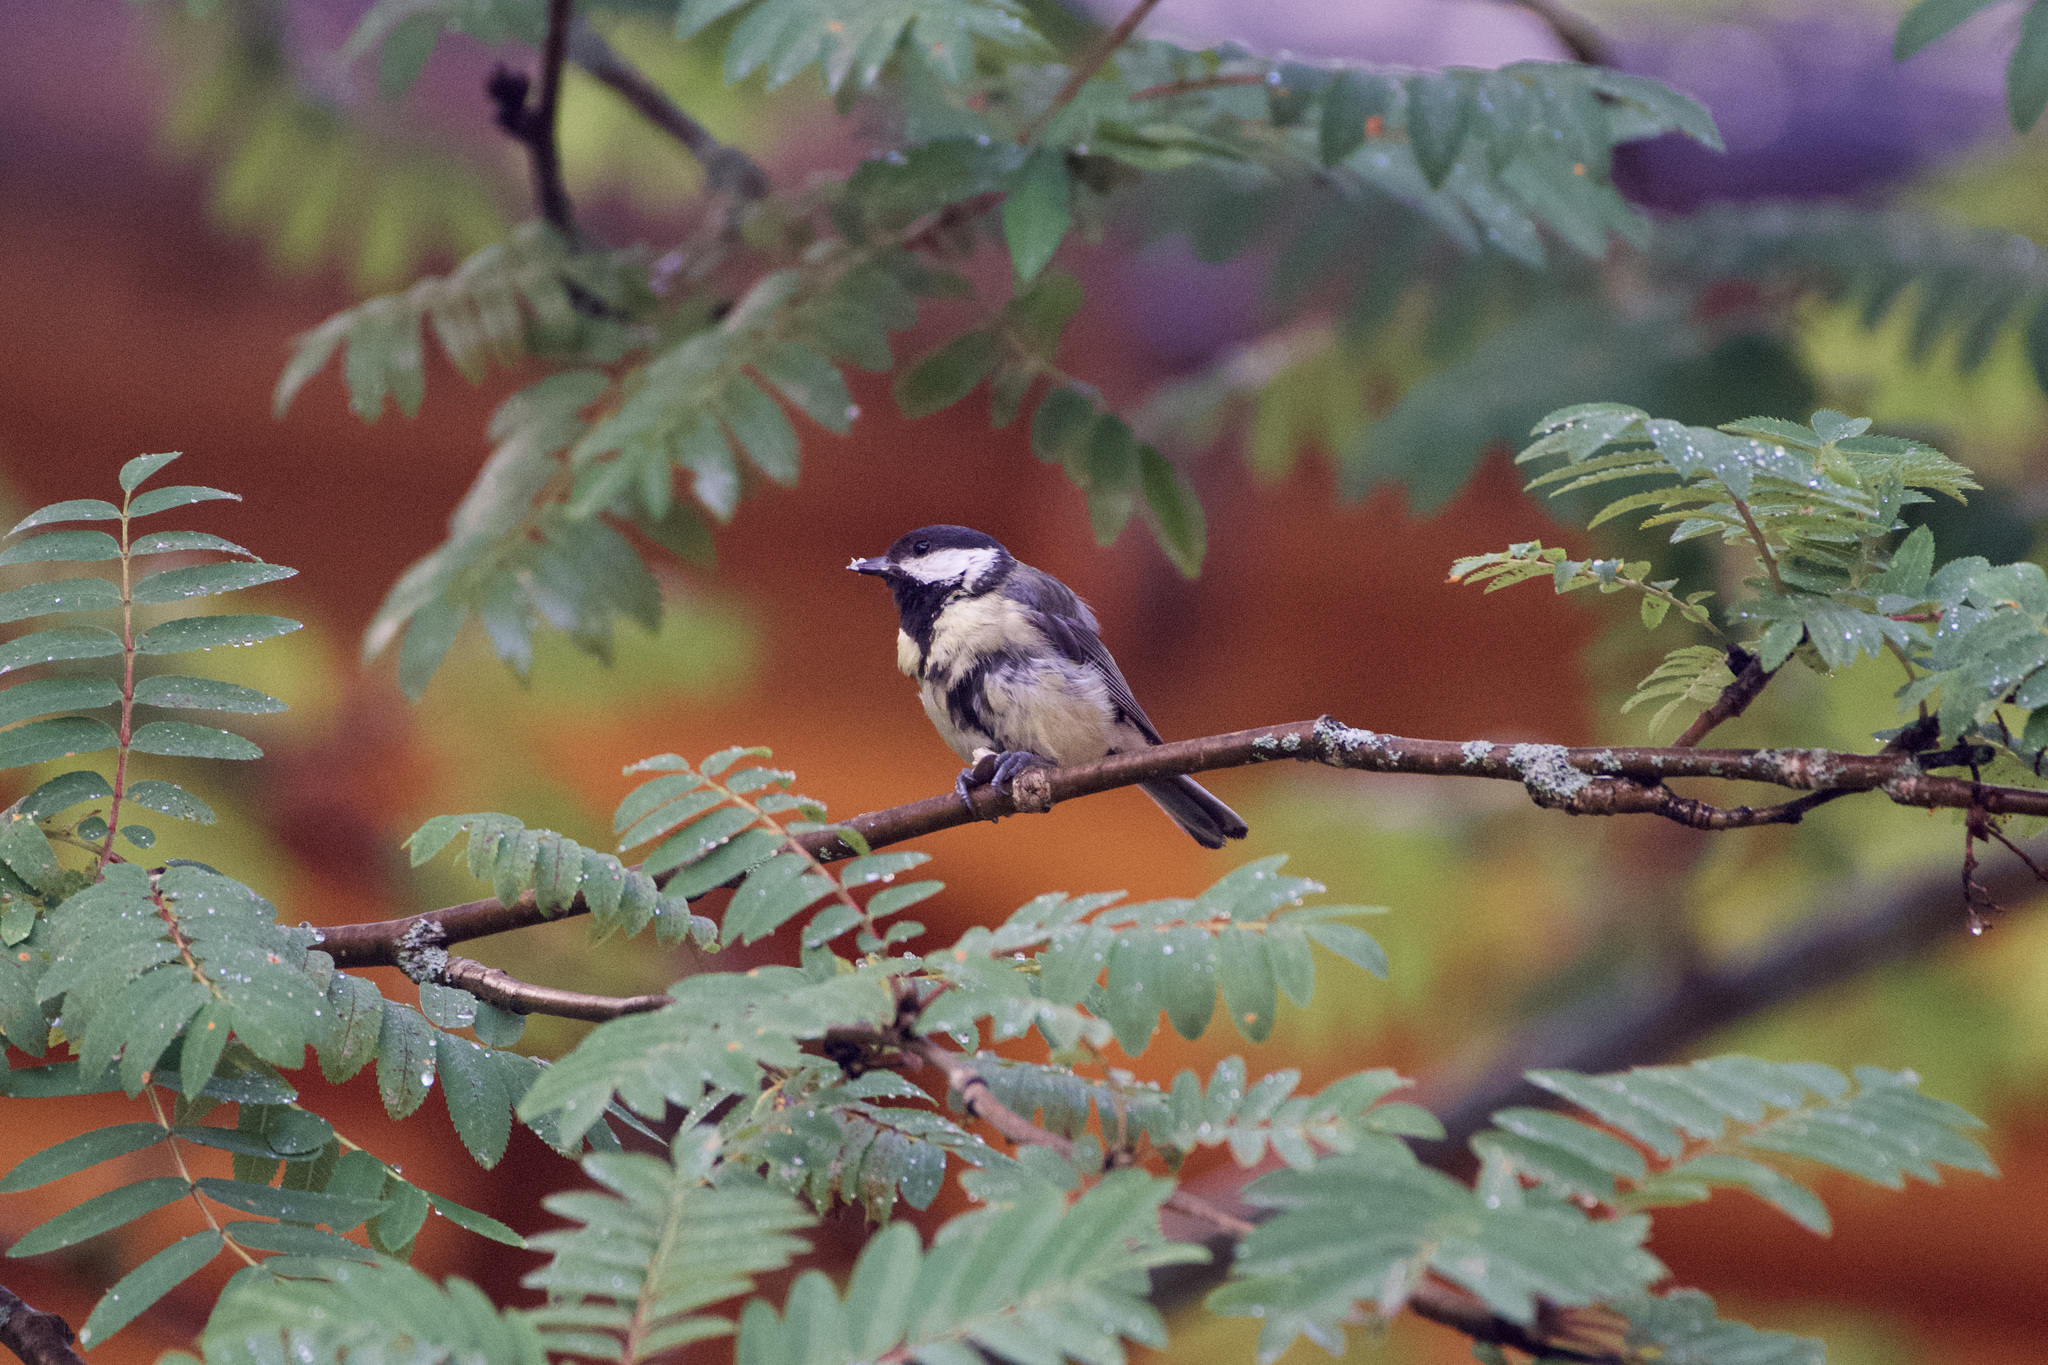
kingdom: Animalia
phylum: Chordata
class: Aves
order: Passeriformes
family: Paridae
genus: Parus
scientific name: Parus major
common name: Great tit
